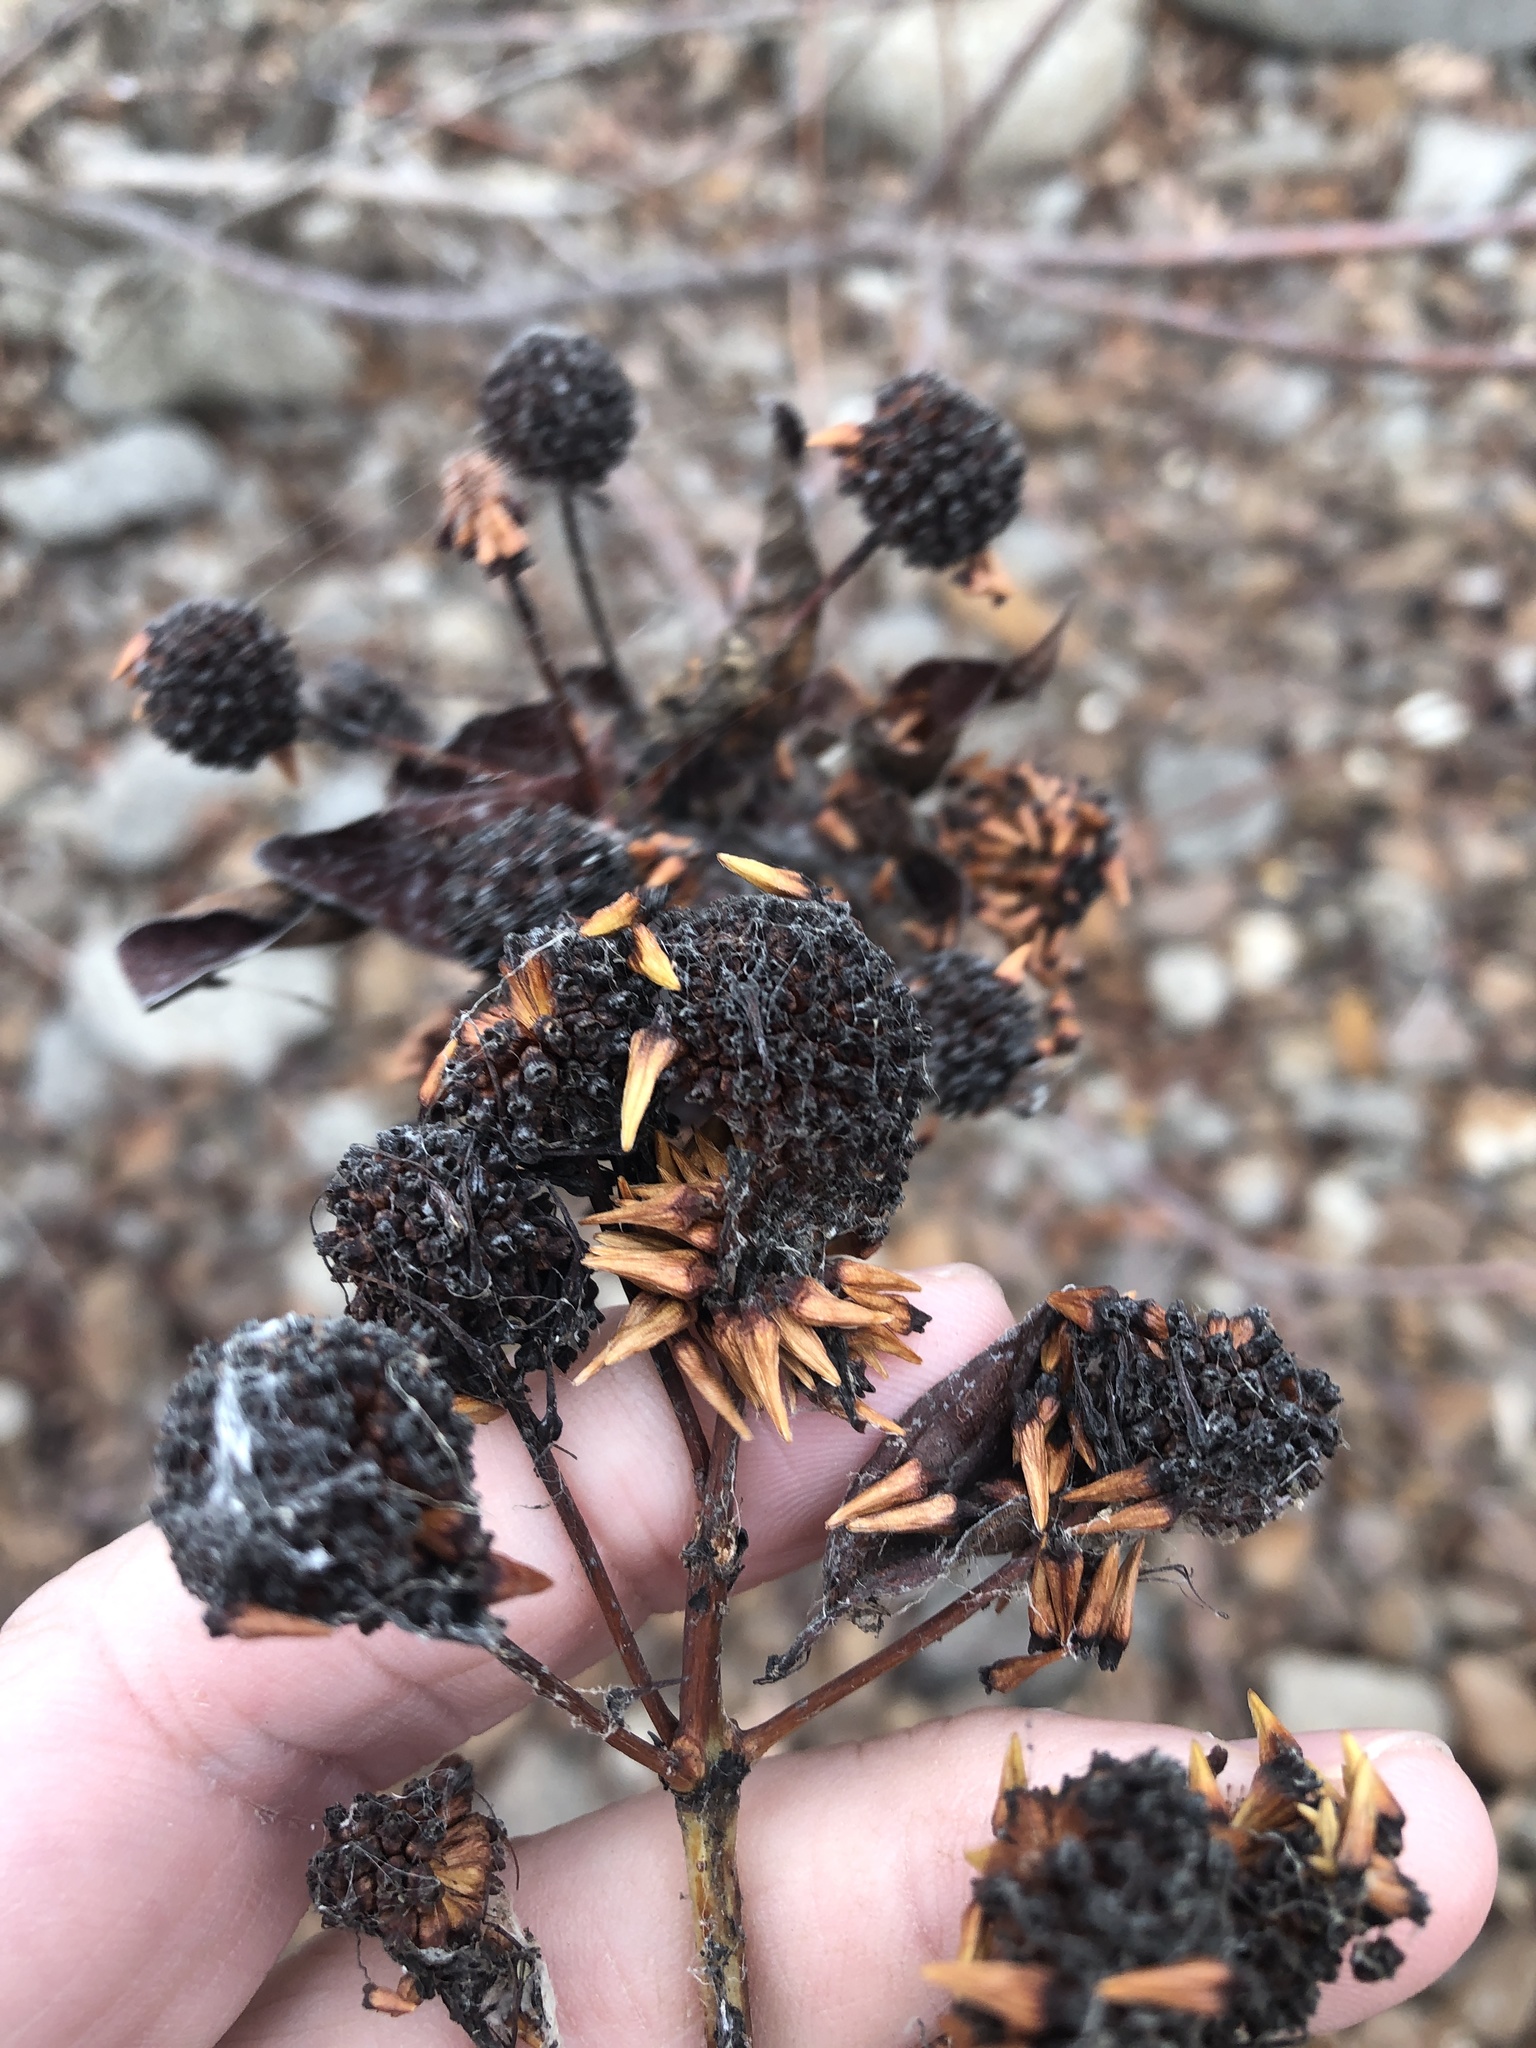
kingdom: Plantae
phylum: Tracheophyta
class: Magnoliopsida
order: Gentianales
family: Rubiaceae
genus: Cephalanthus
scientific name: Cephalanthus occidentalis
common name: Button-willow
